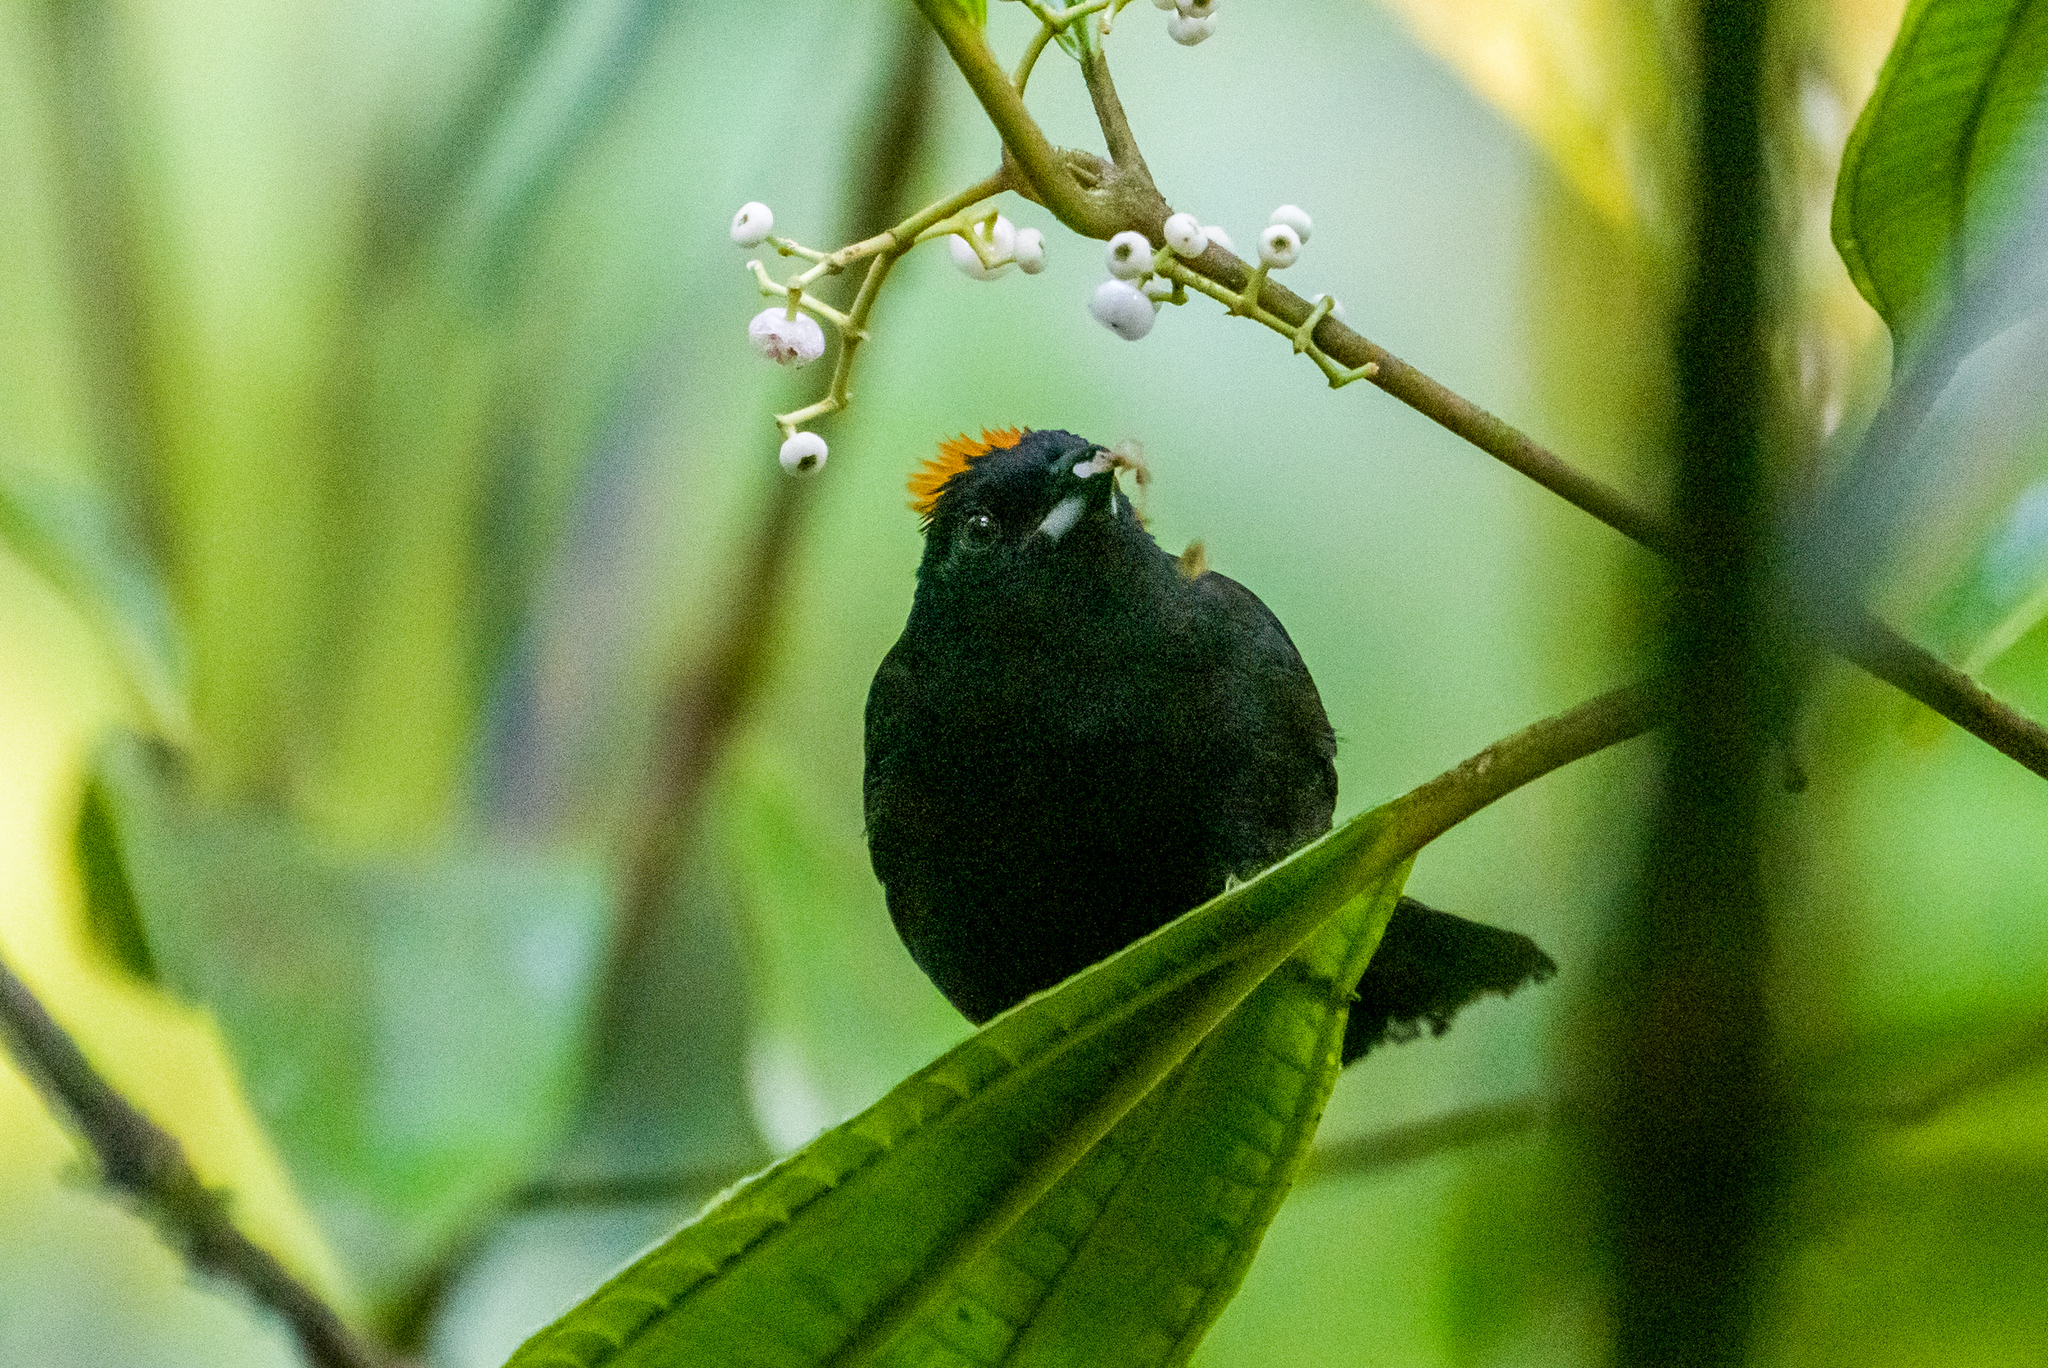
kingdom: Animalia
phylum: Chordata
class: Aves
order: Passeriformes
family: Thraupidae
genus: Tachyphonus
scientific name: Tachyphonus delatrii
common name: Tawny-crested tanager
